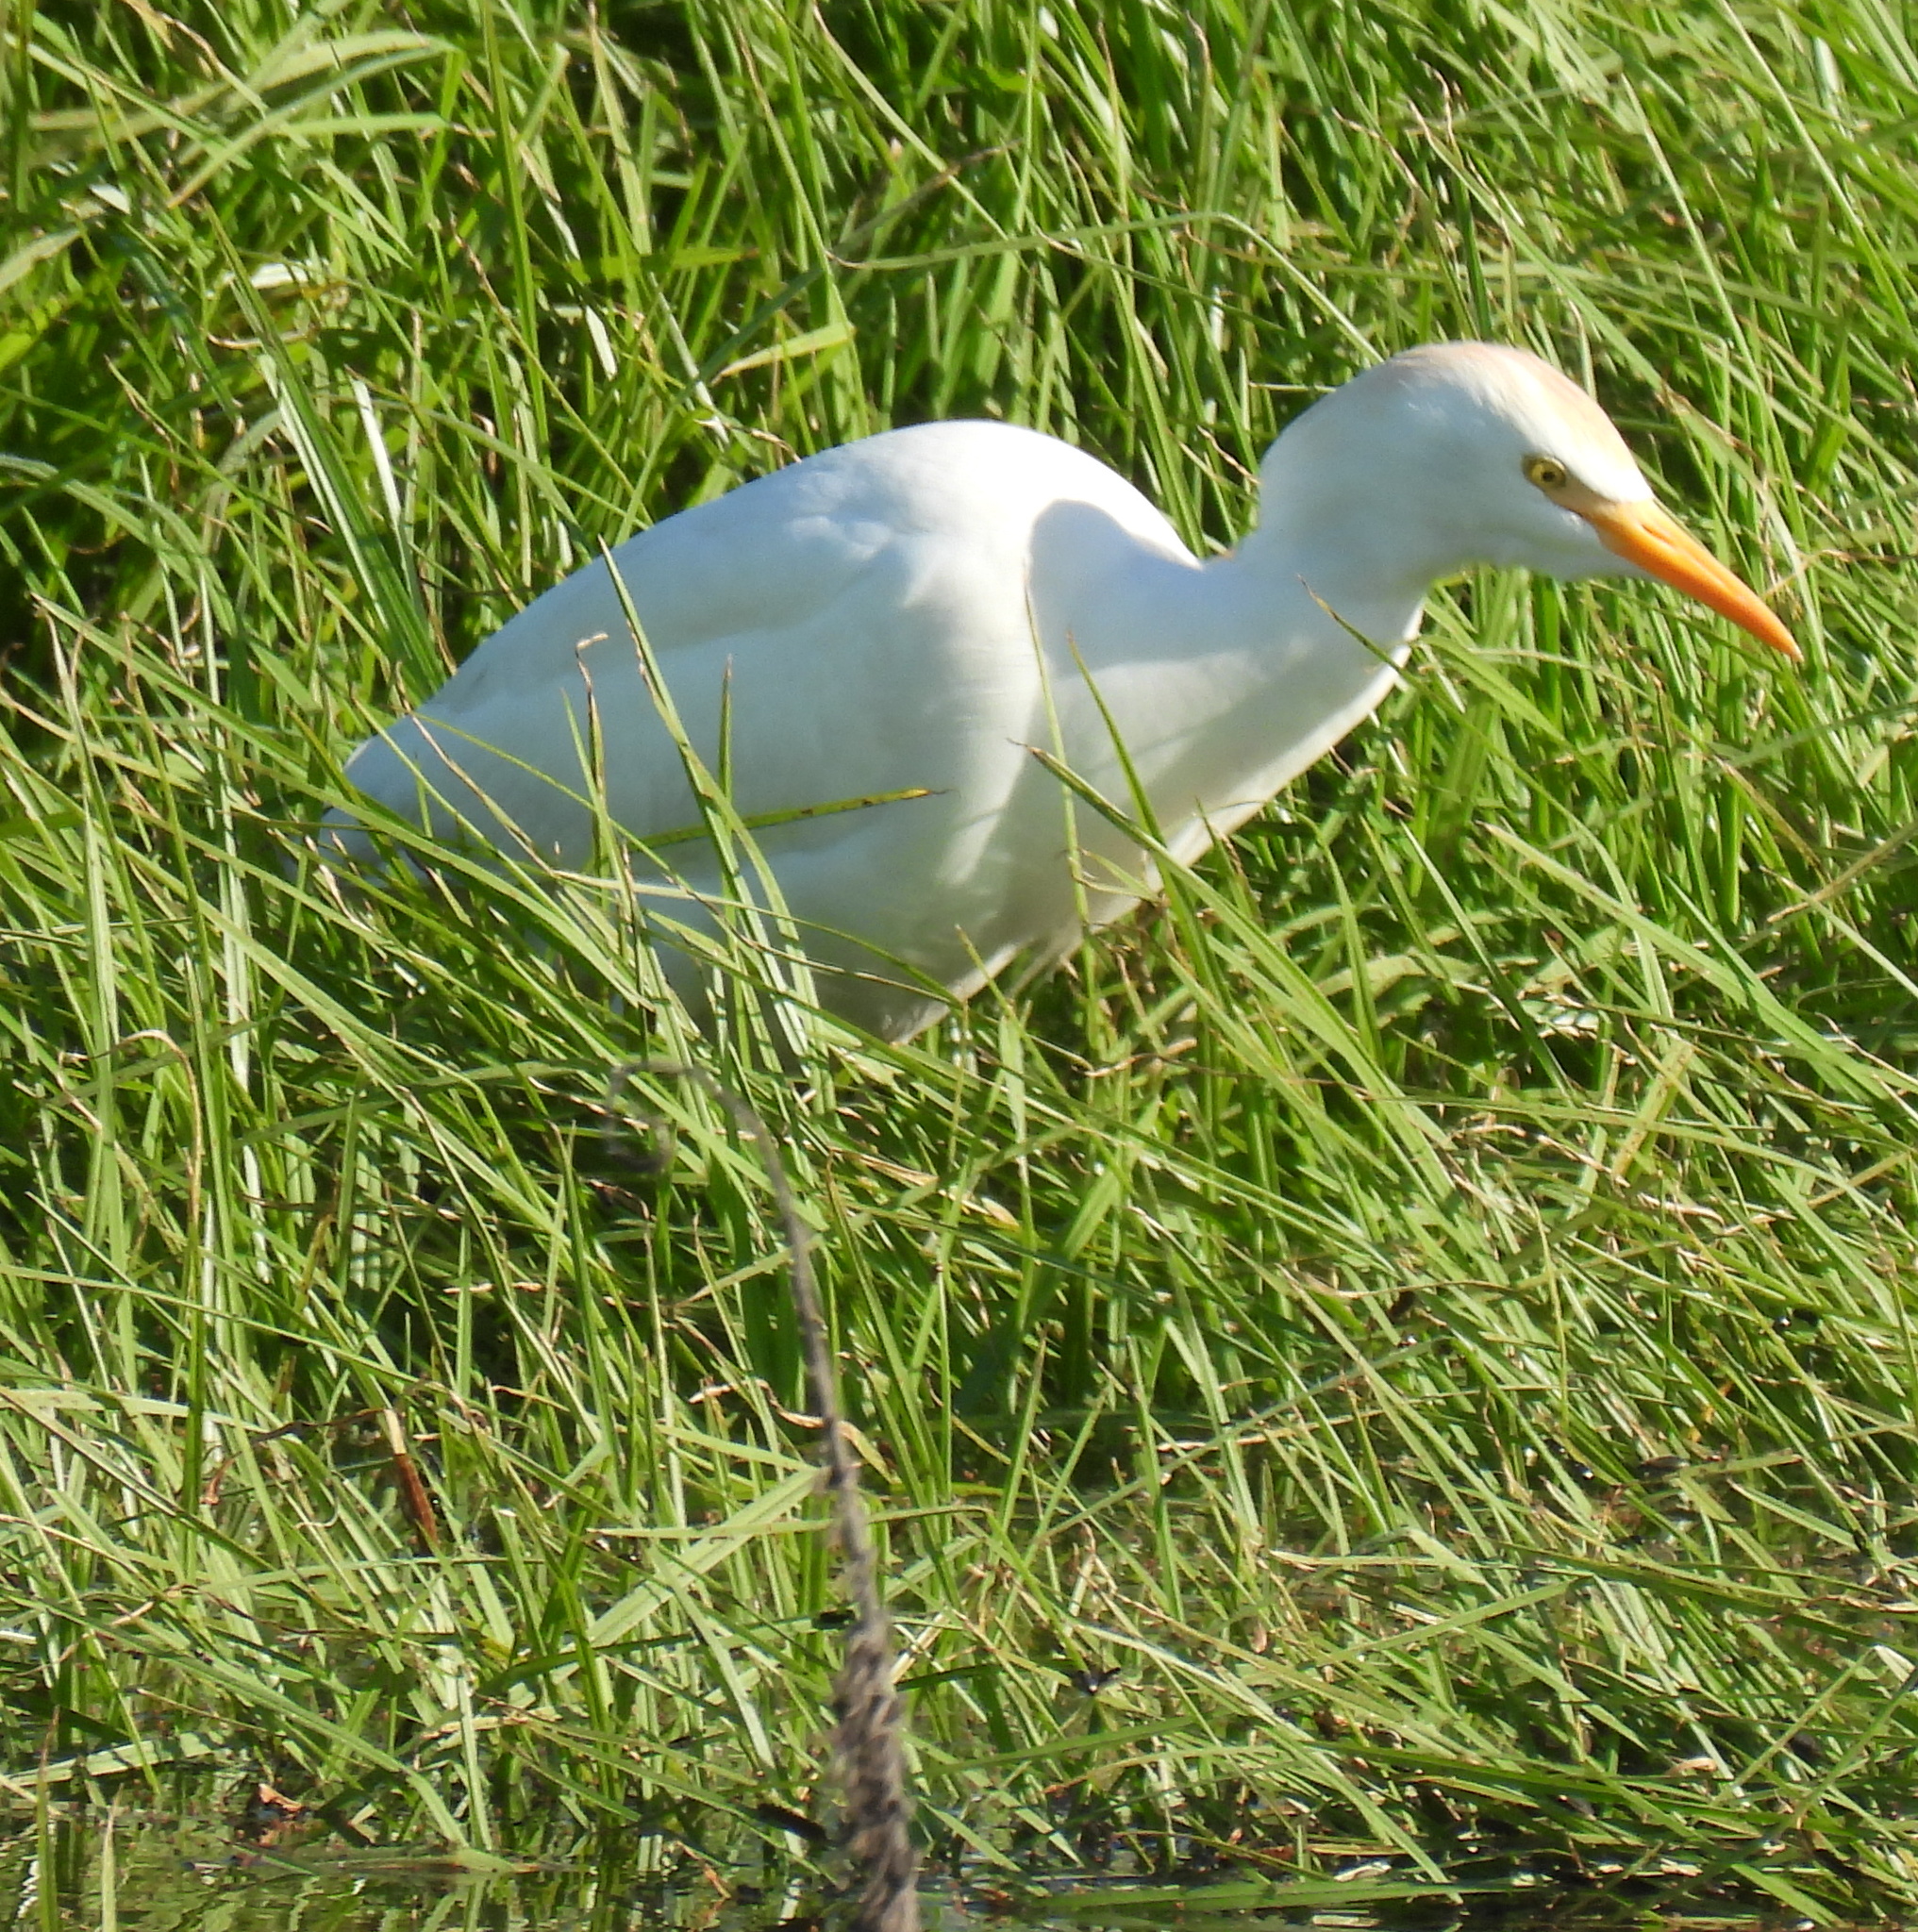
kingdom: Animalia
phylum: Chordata
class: Aves
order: Pelecaniformes
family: Ardeidae
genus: Bubulcus
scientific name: Bubulcus ibis
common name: Cattle egret
